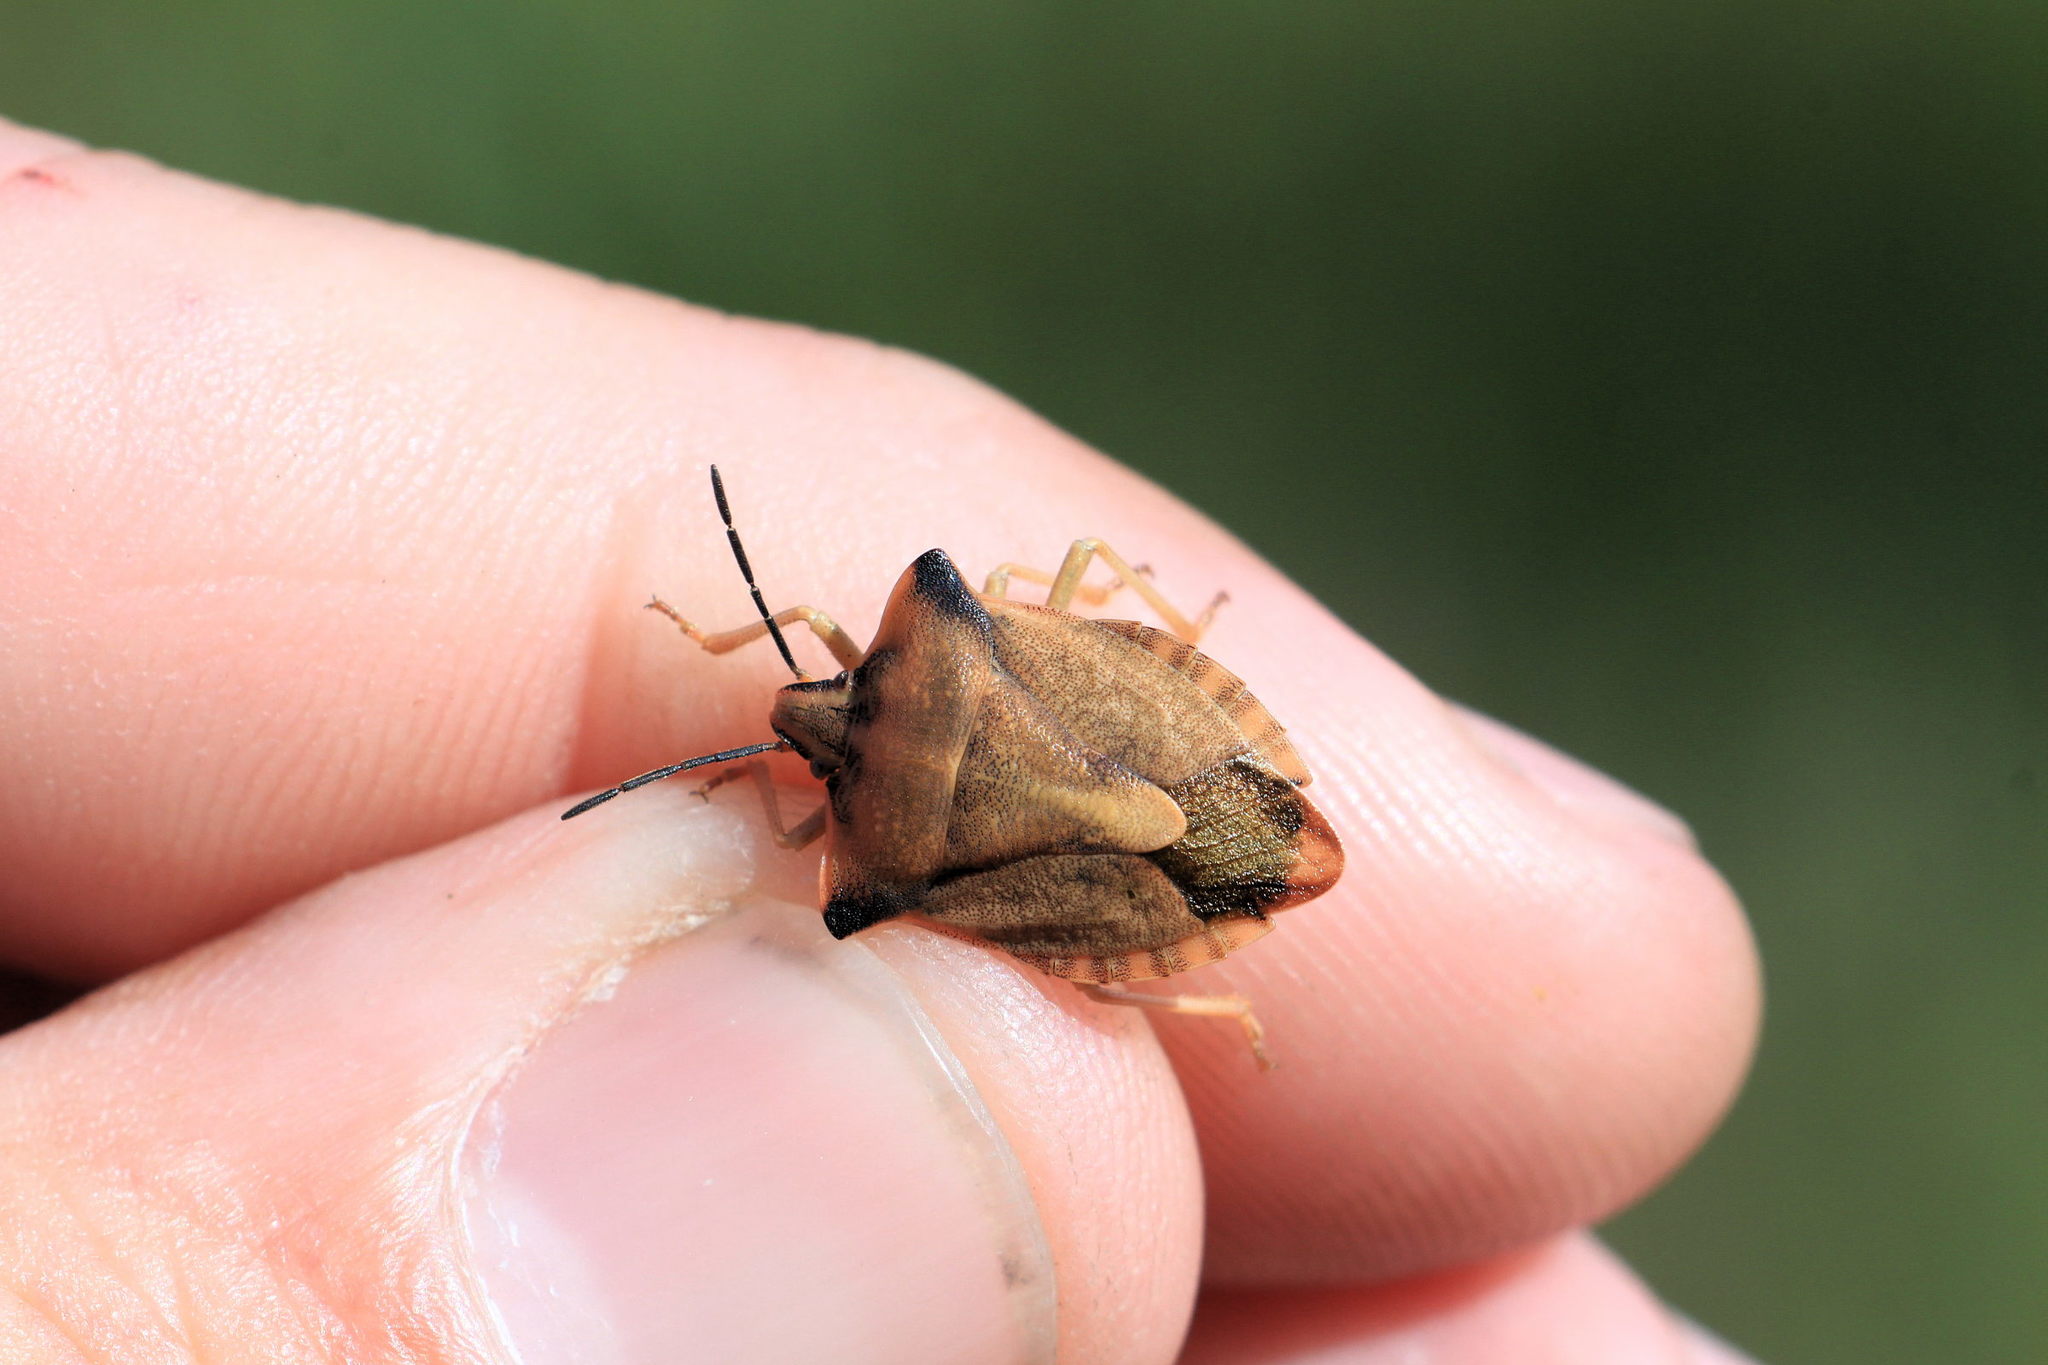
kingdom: Animalia
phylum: Arthropoda
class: Insecta
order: Hemiptera
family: Pentatomidae
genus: Carpocoris
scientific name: Carpocoris fuscispinus
